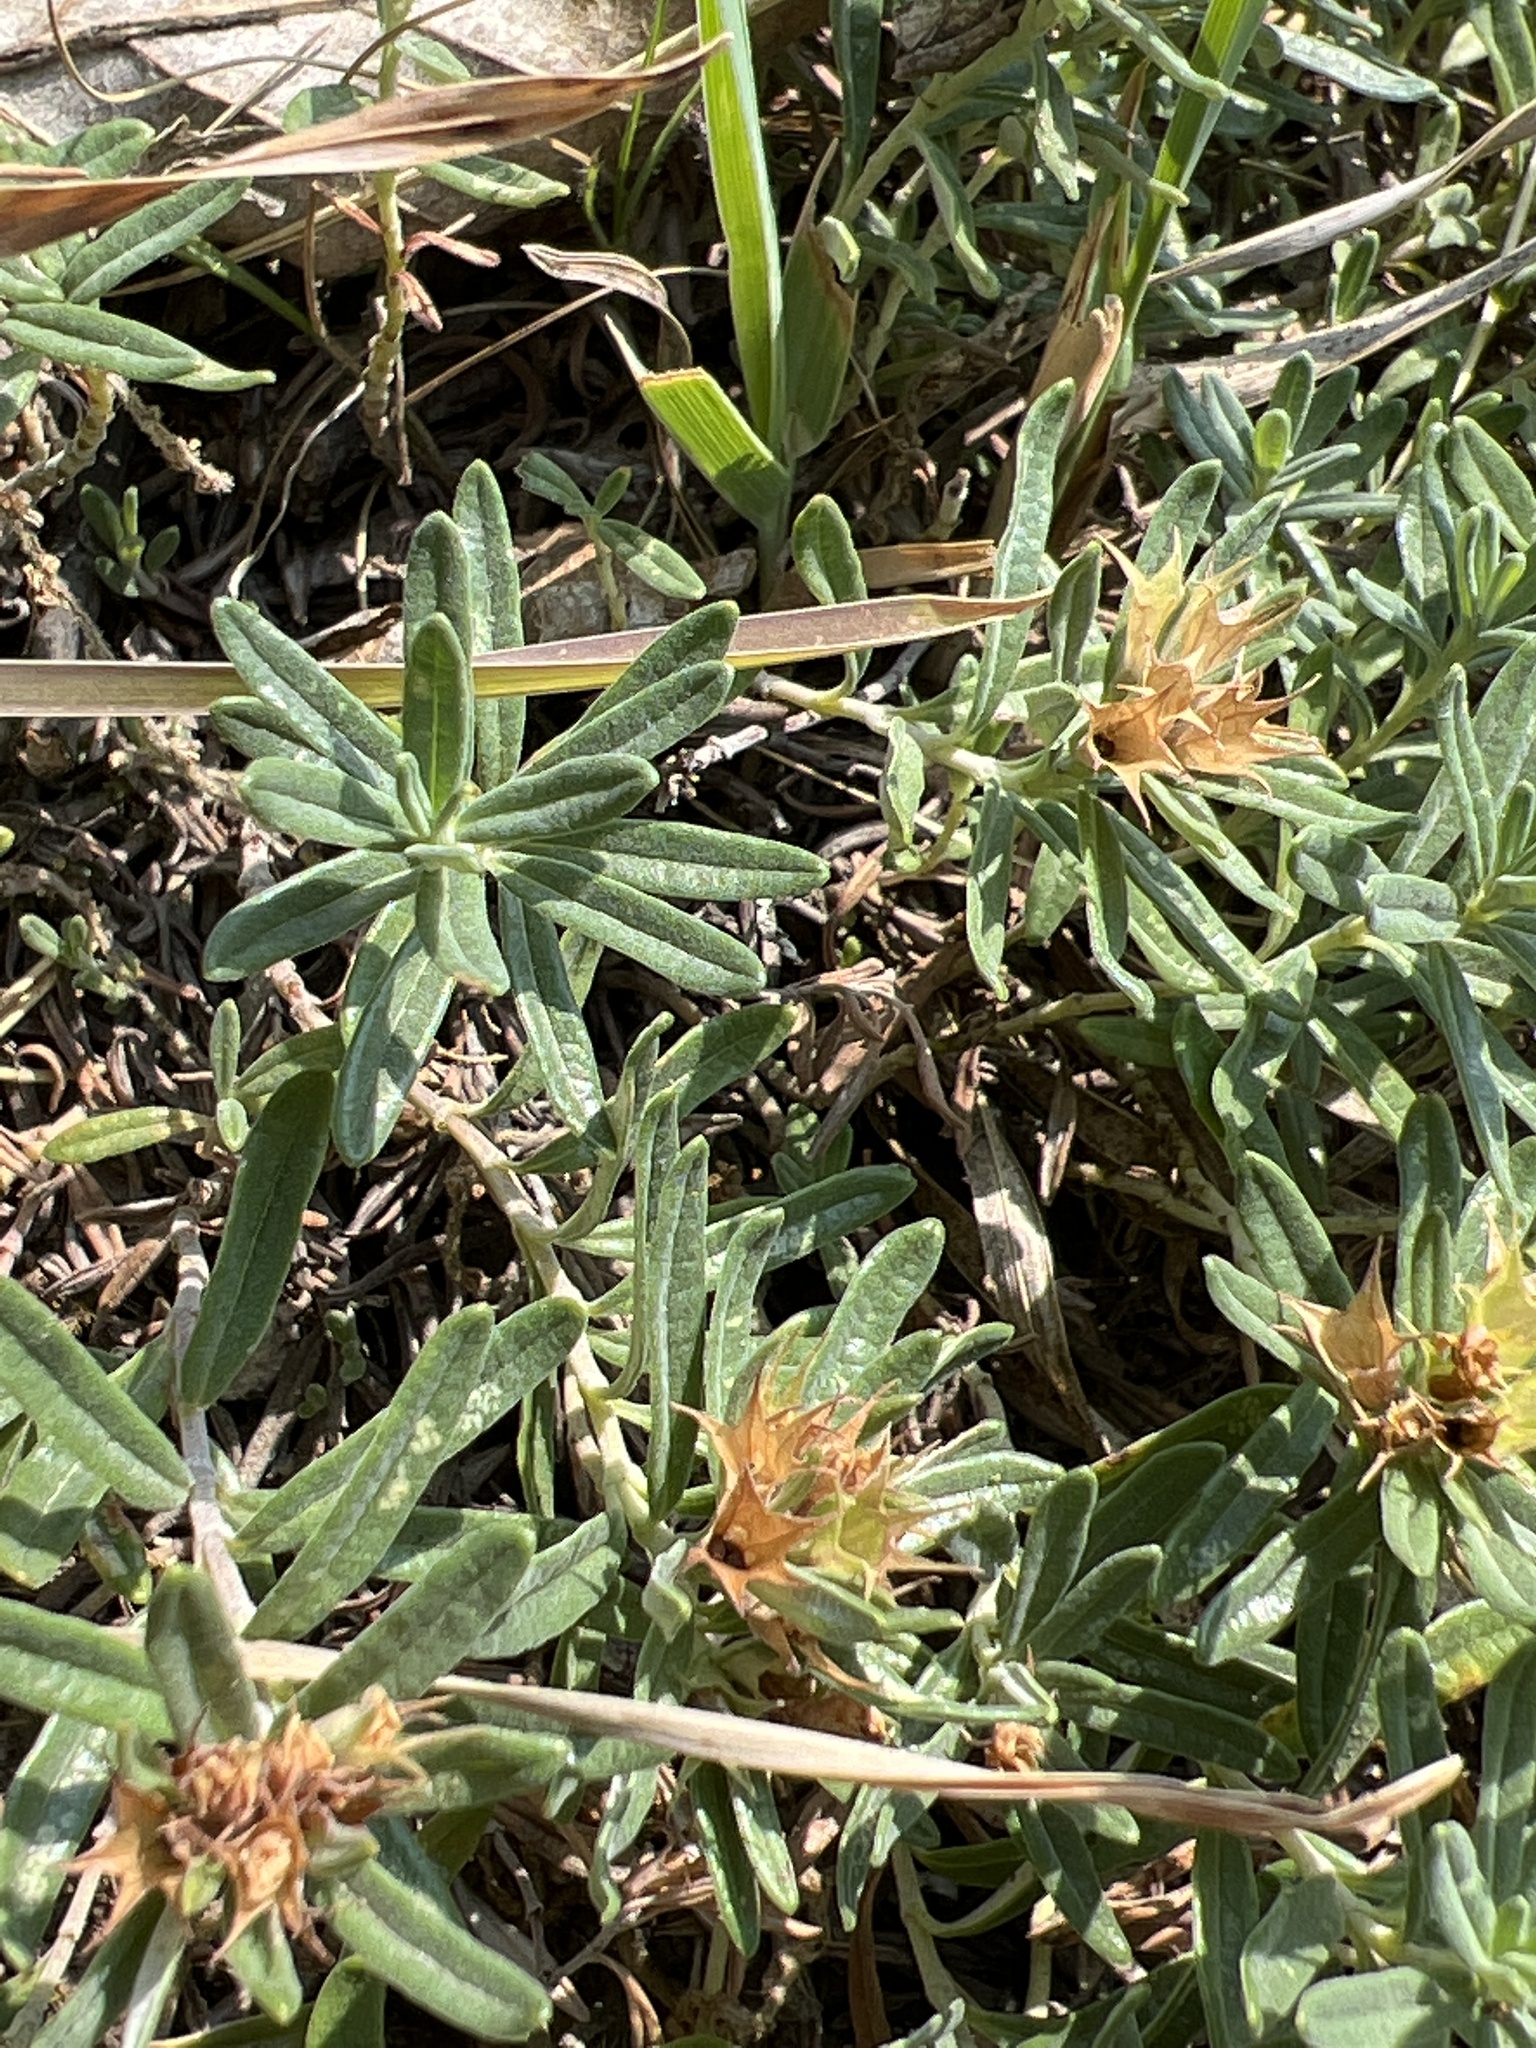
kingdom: Plantae
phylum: Tracheophyta
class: Magnoliopsida
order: Lamiales
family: Lamiaceae
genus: Teucrium
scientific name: Teucrium montanum
